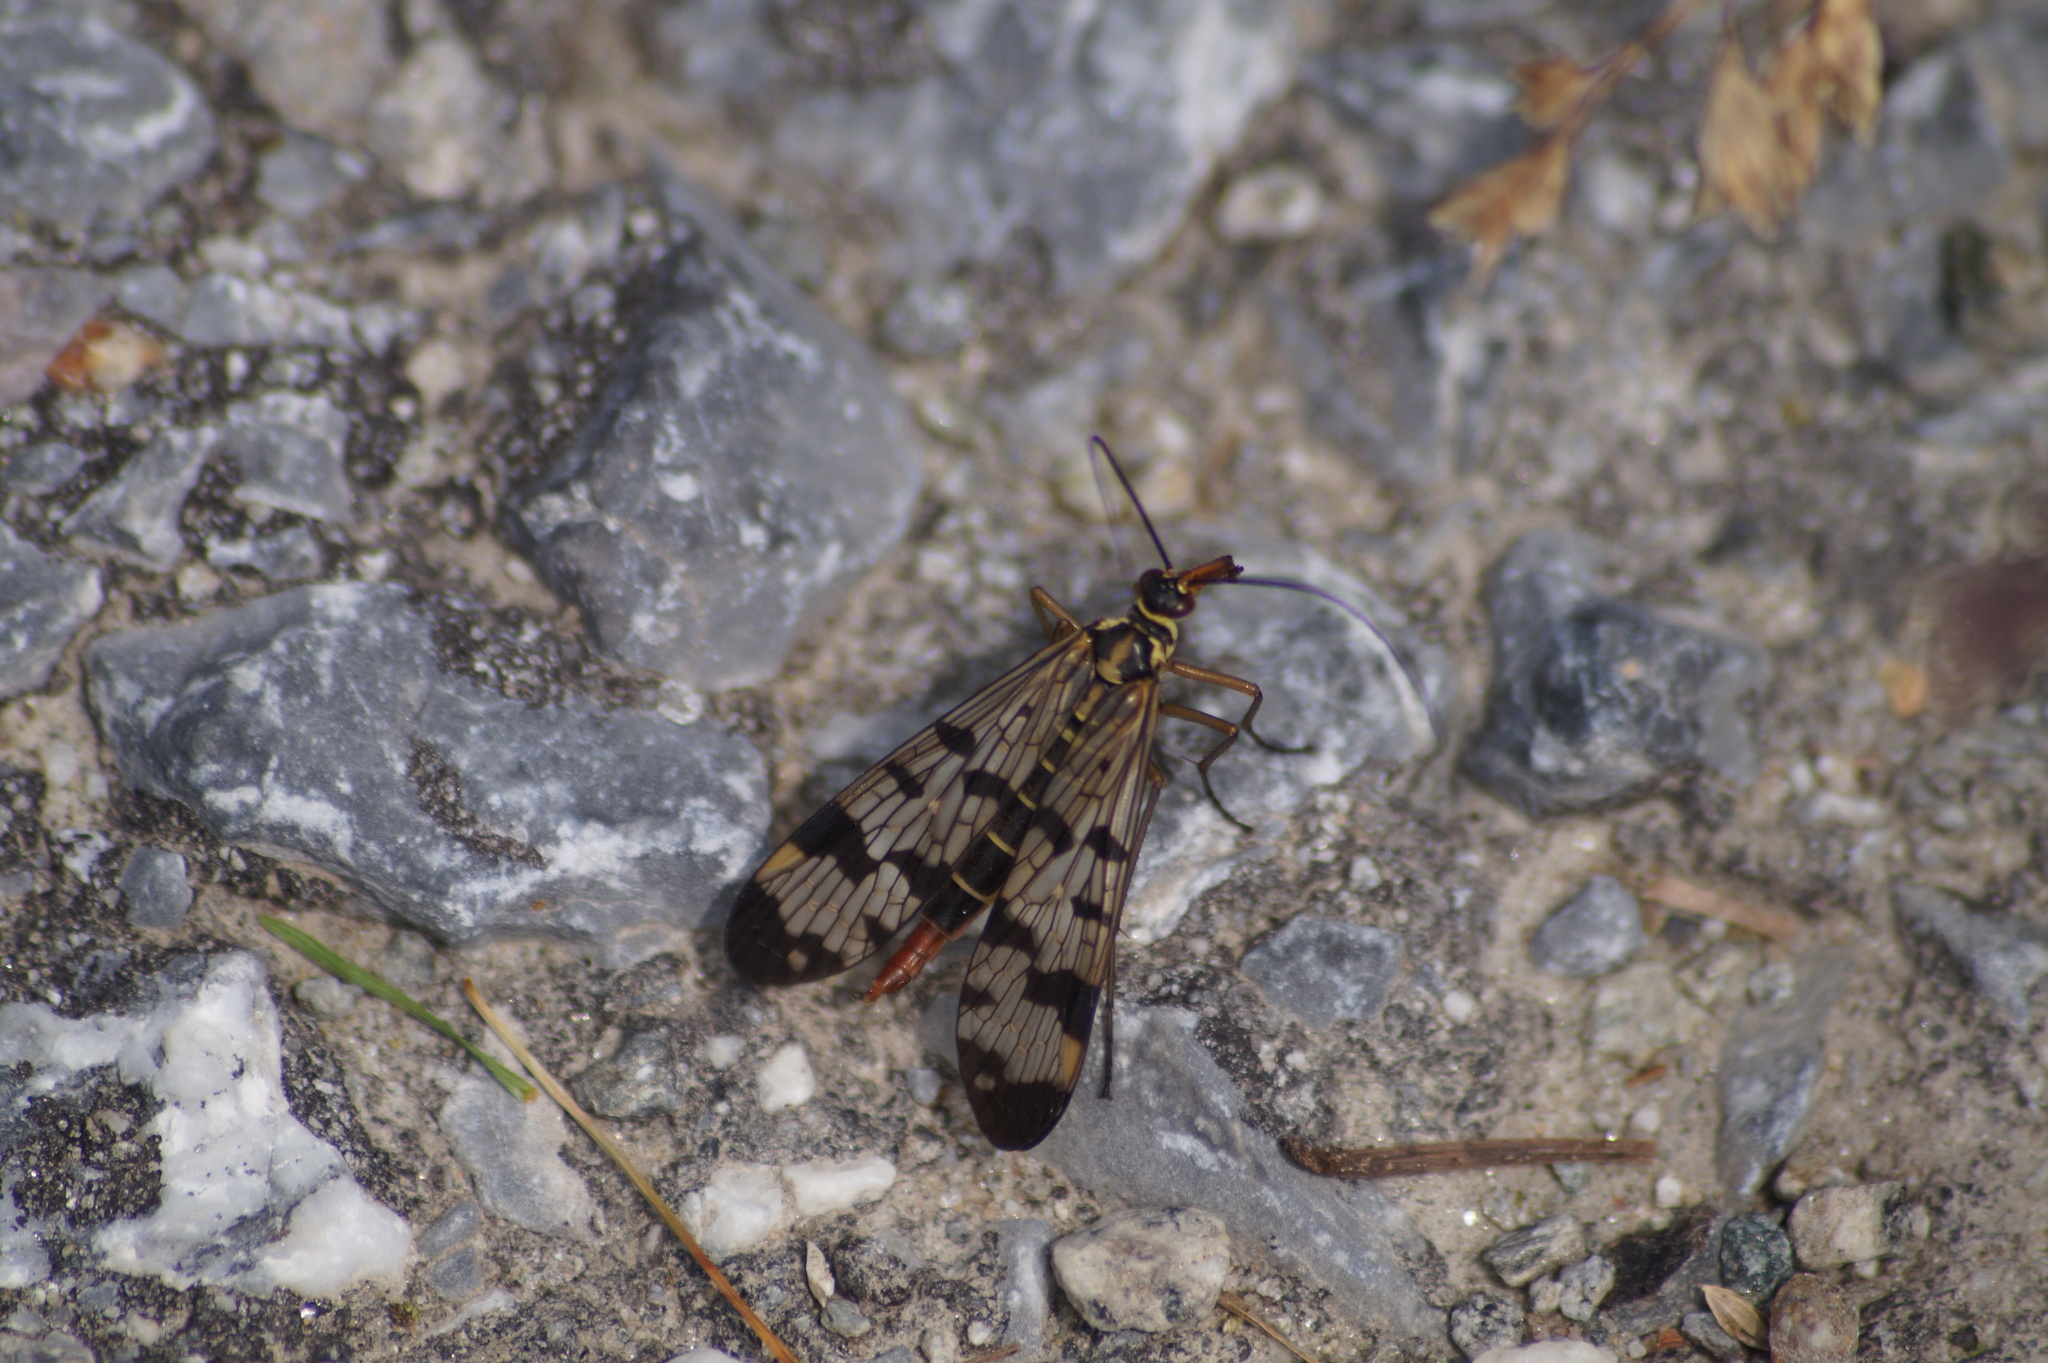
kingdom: Animalia
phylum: Arthropoda
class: Insecta
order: Mecoptera
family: Panorpidae
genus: Panorpa
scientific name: Panorpa communis
